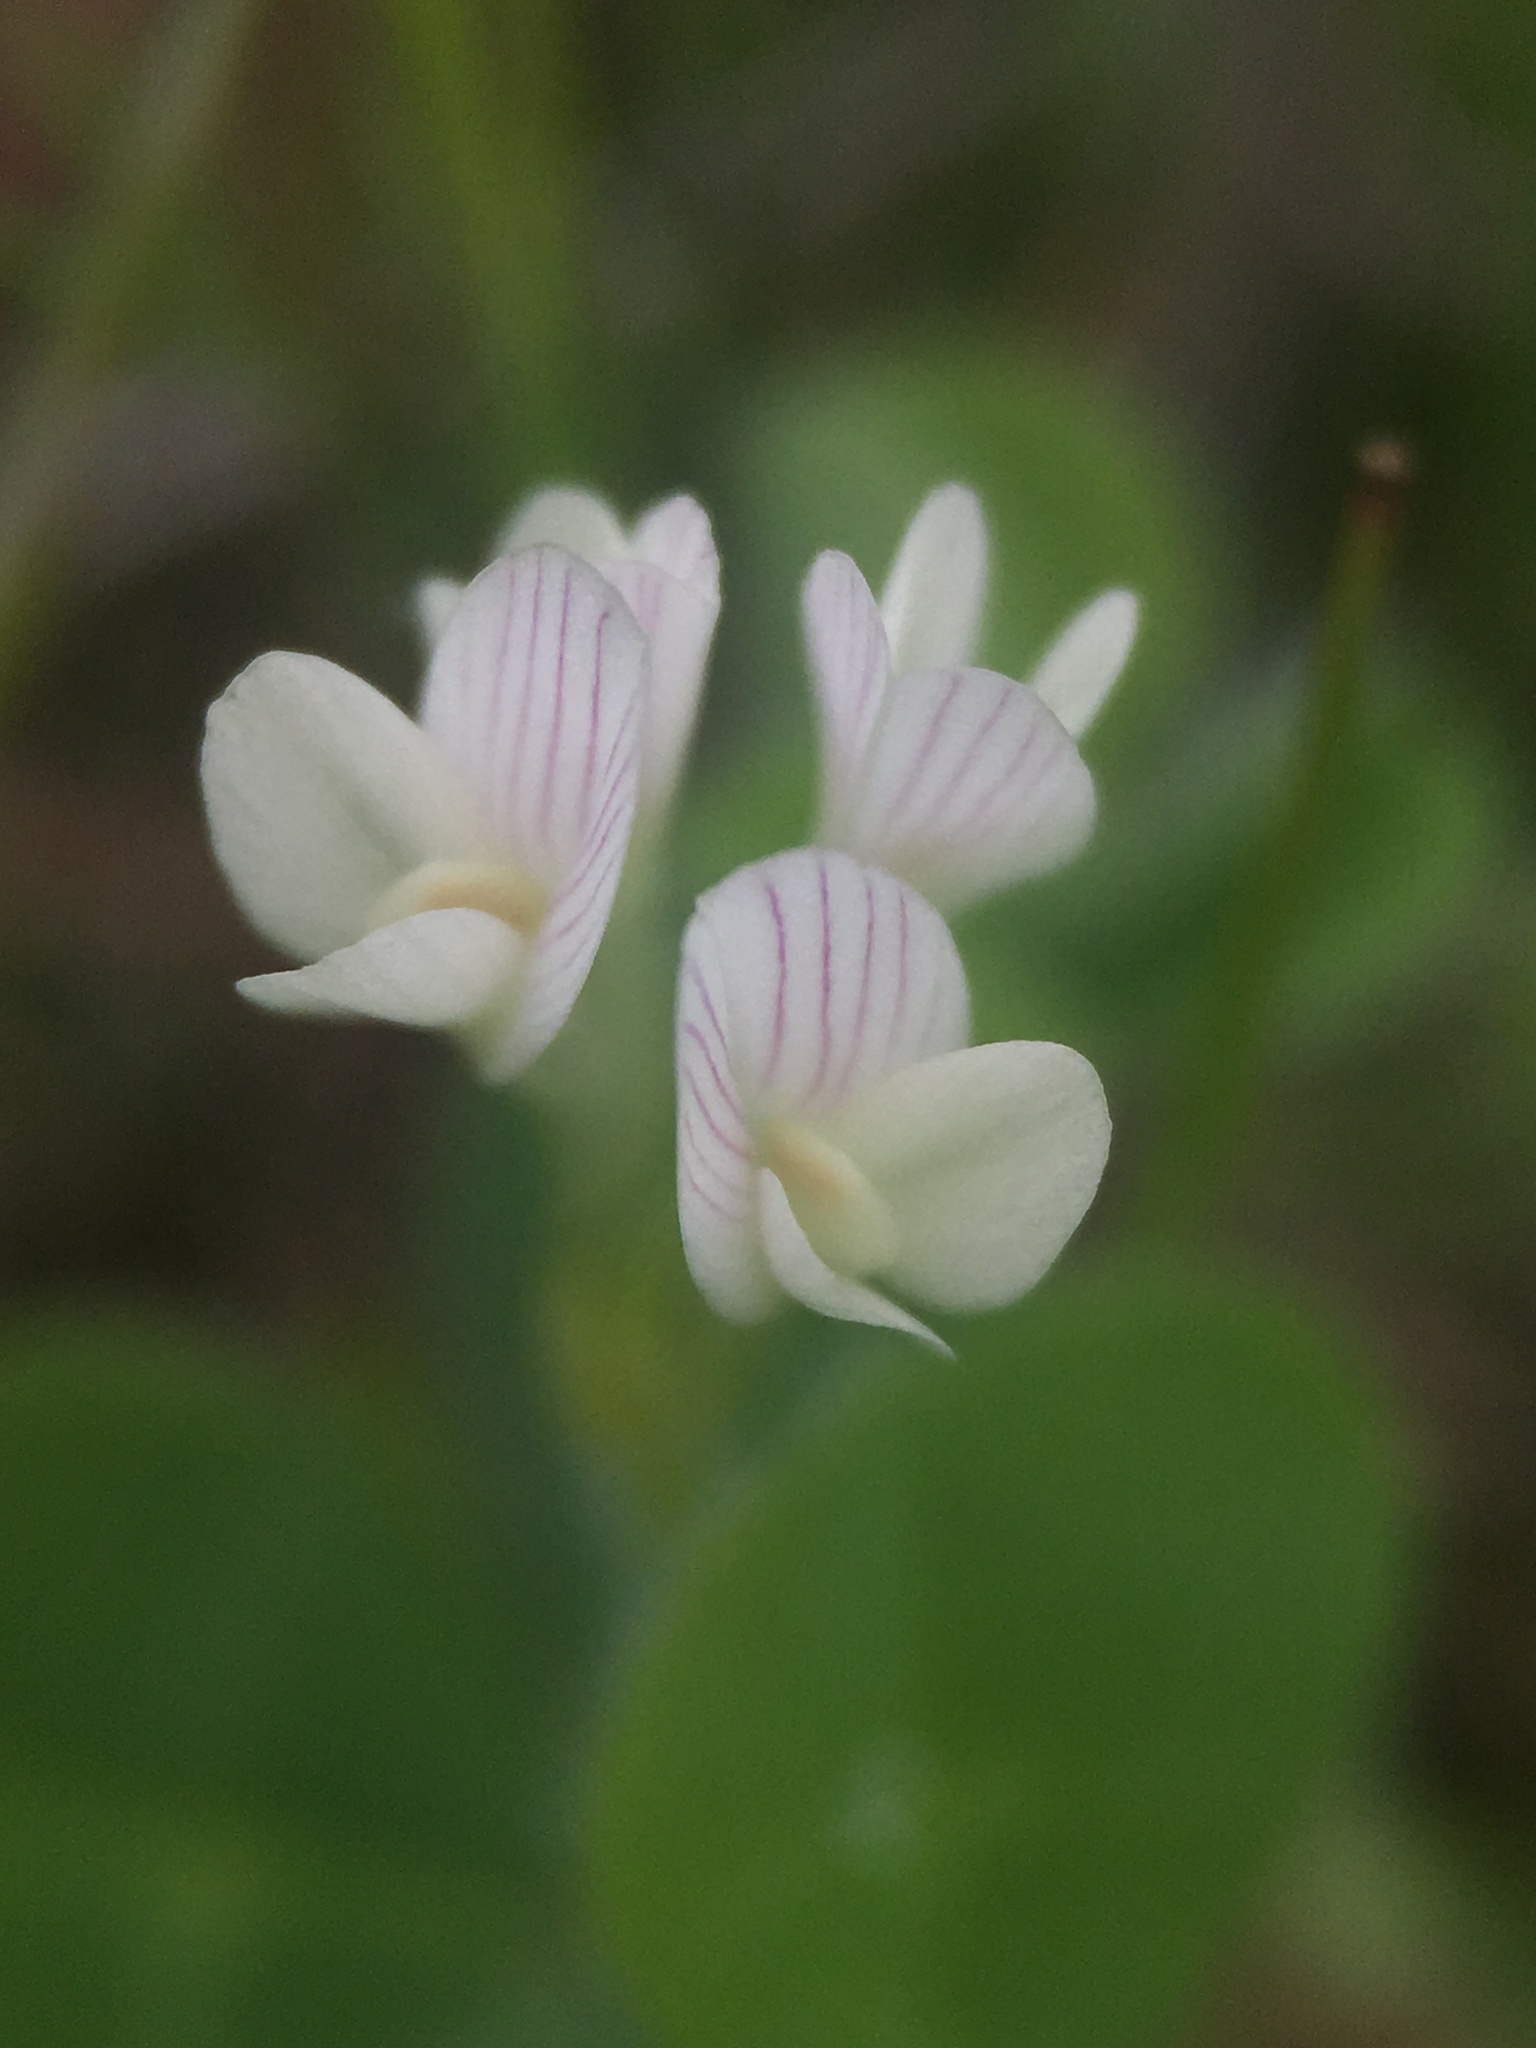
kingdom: Plantae
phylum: Tracheophyta
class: Magnoliopsida
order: Fabales
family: Fabaceae
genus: Trifolium
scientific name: Trifolium subterraneum
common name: Subterranean clover
